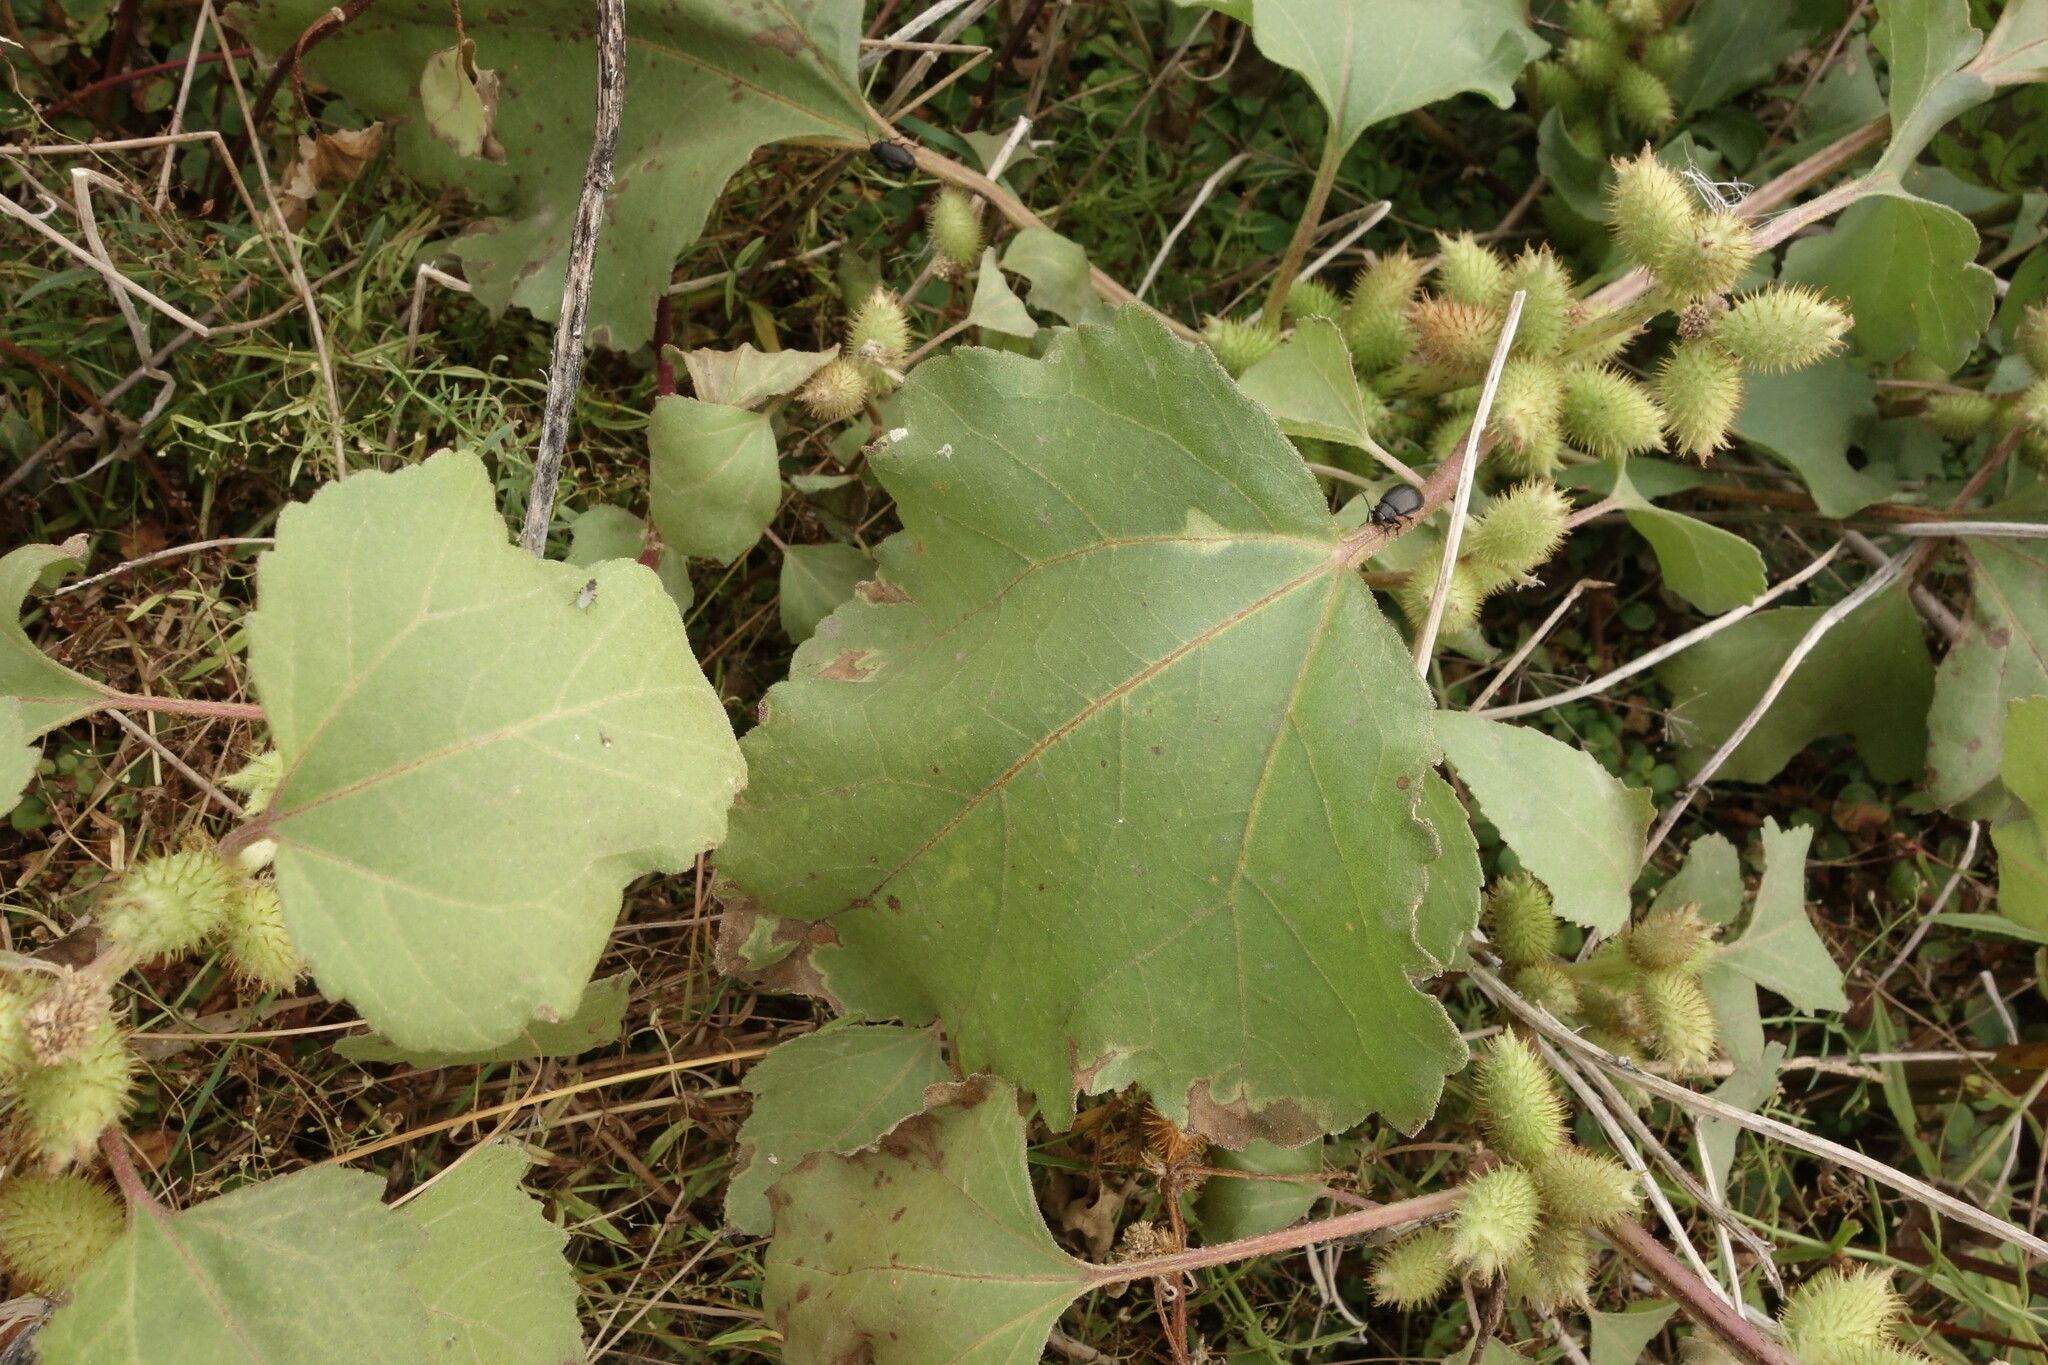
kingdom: Plantae
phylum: Tracheophyta
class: Magnoliopsida
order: Asterales
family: Asteraceae
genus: Xanthium
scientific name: Xanthium orientale
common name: Californian burr
